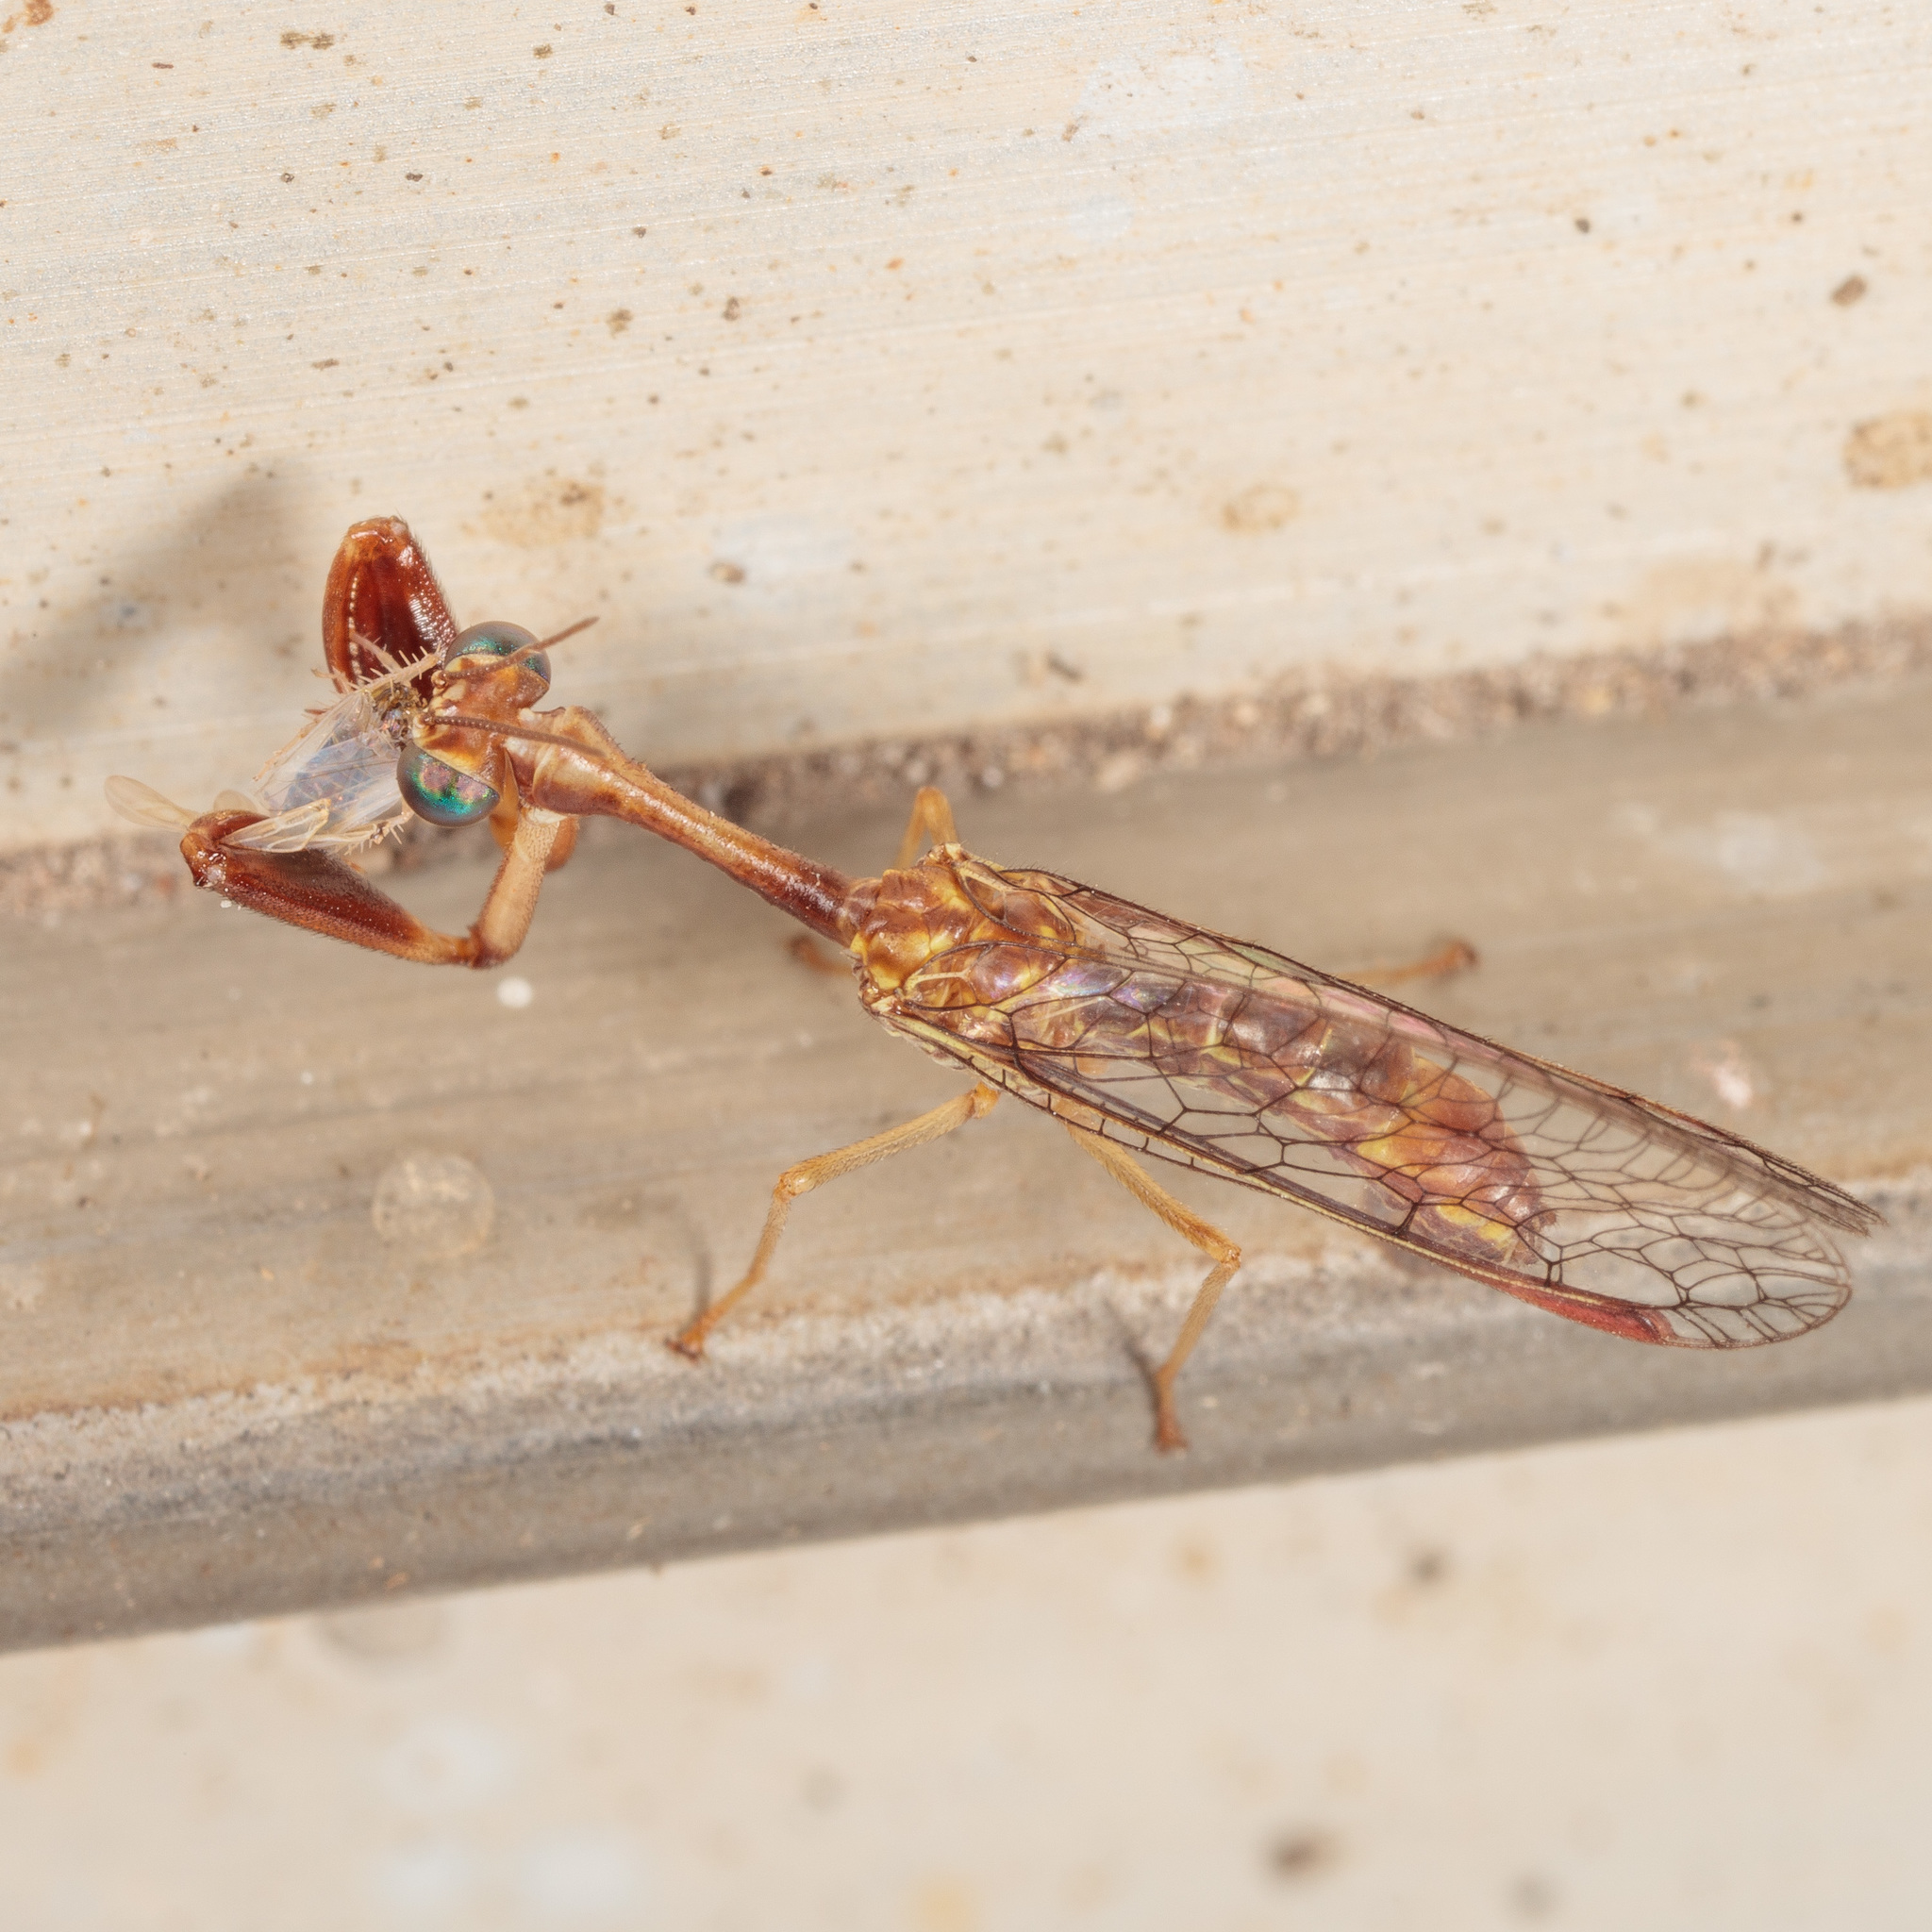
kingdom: Animalia
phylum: Arthropoda
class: Insecta
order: Neuroptera
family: Mantispidae
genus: Leptomantispa
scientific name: Leptomantispa pulchella
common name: Stevens's mantidfly
